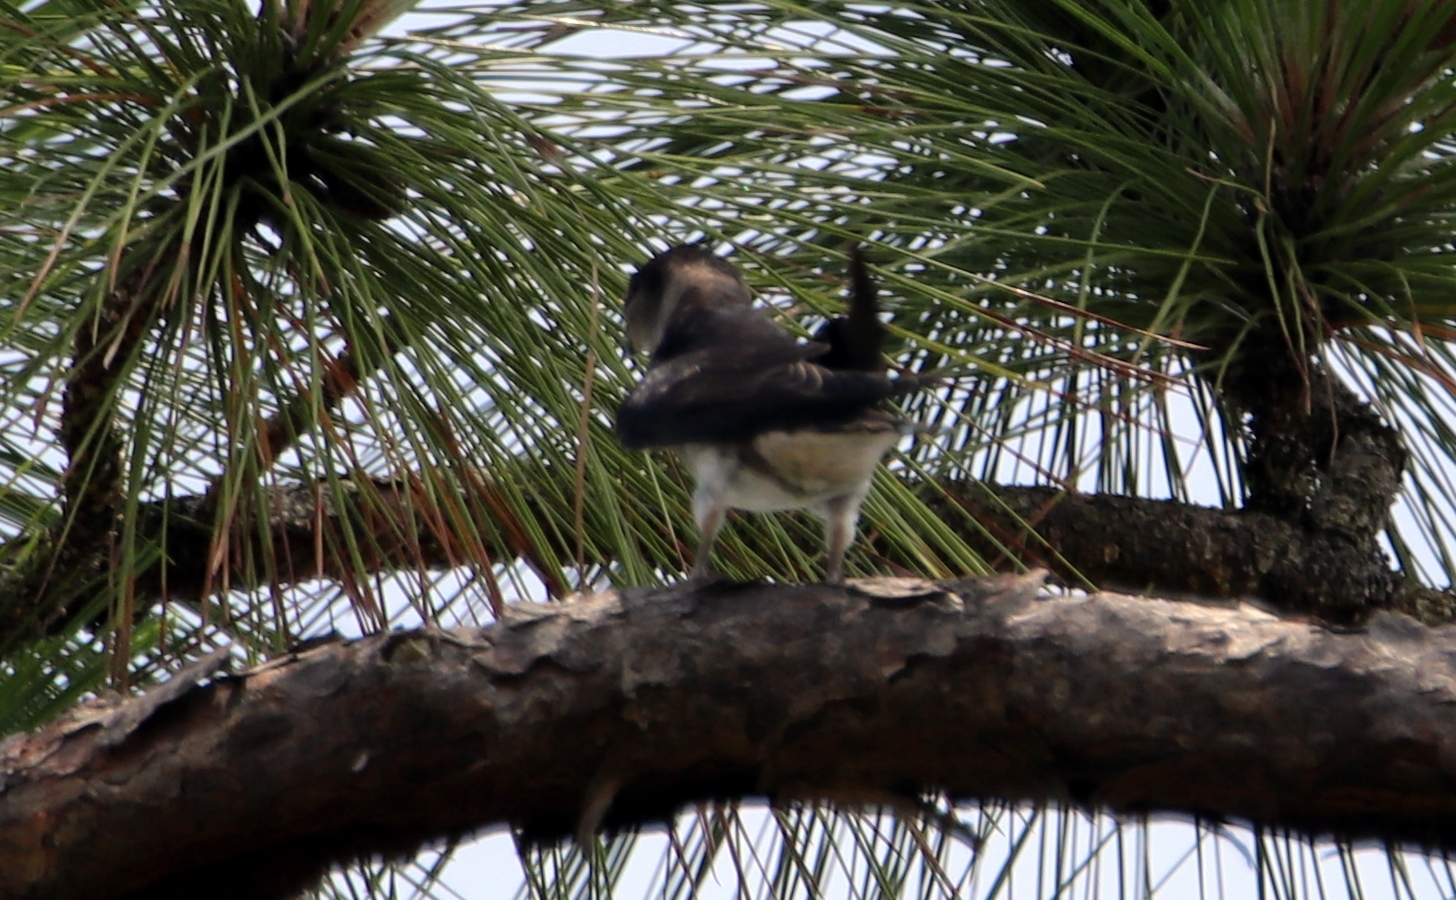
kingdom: Animalia
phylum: Chordata
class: Aves
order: Passeriformes
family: Hirundinidae
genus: Progne
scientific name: Progne subis
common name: Purple martin
